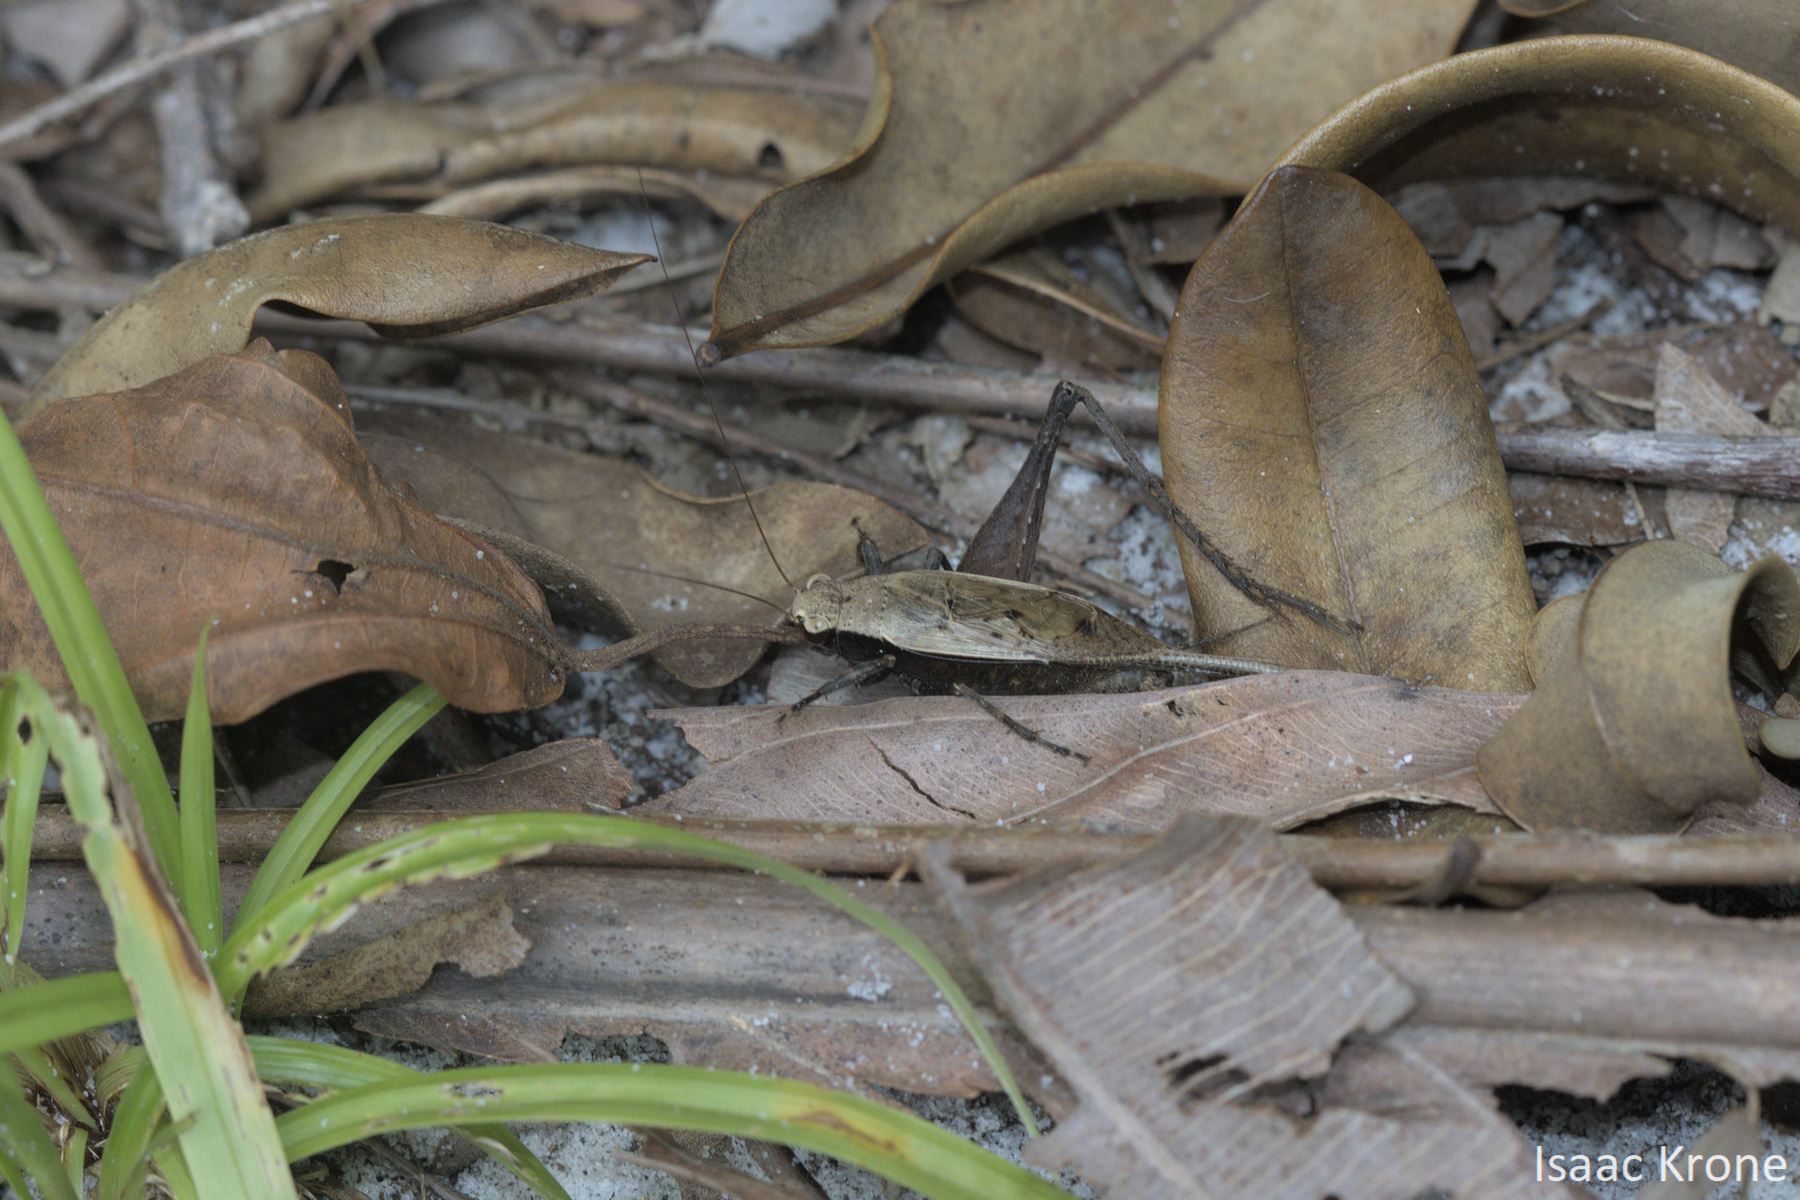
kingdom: Animalia
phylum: Arthropoda
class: Insecta
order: Orthoptera
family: Gryllidae
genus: Eneoptera
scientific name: Eneoptera surinamensis
